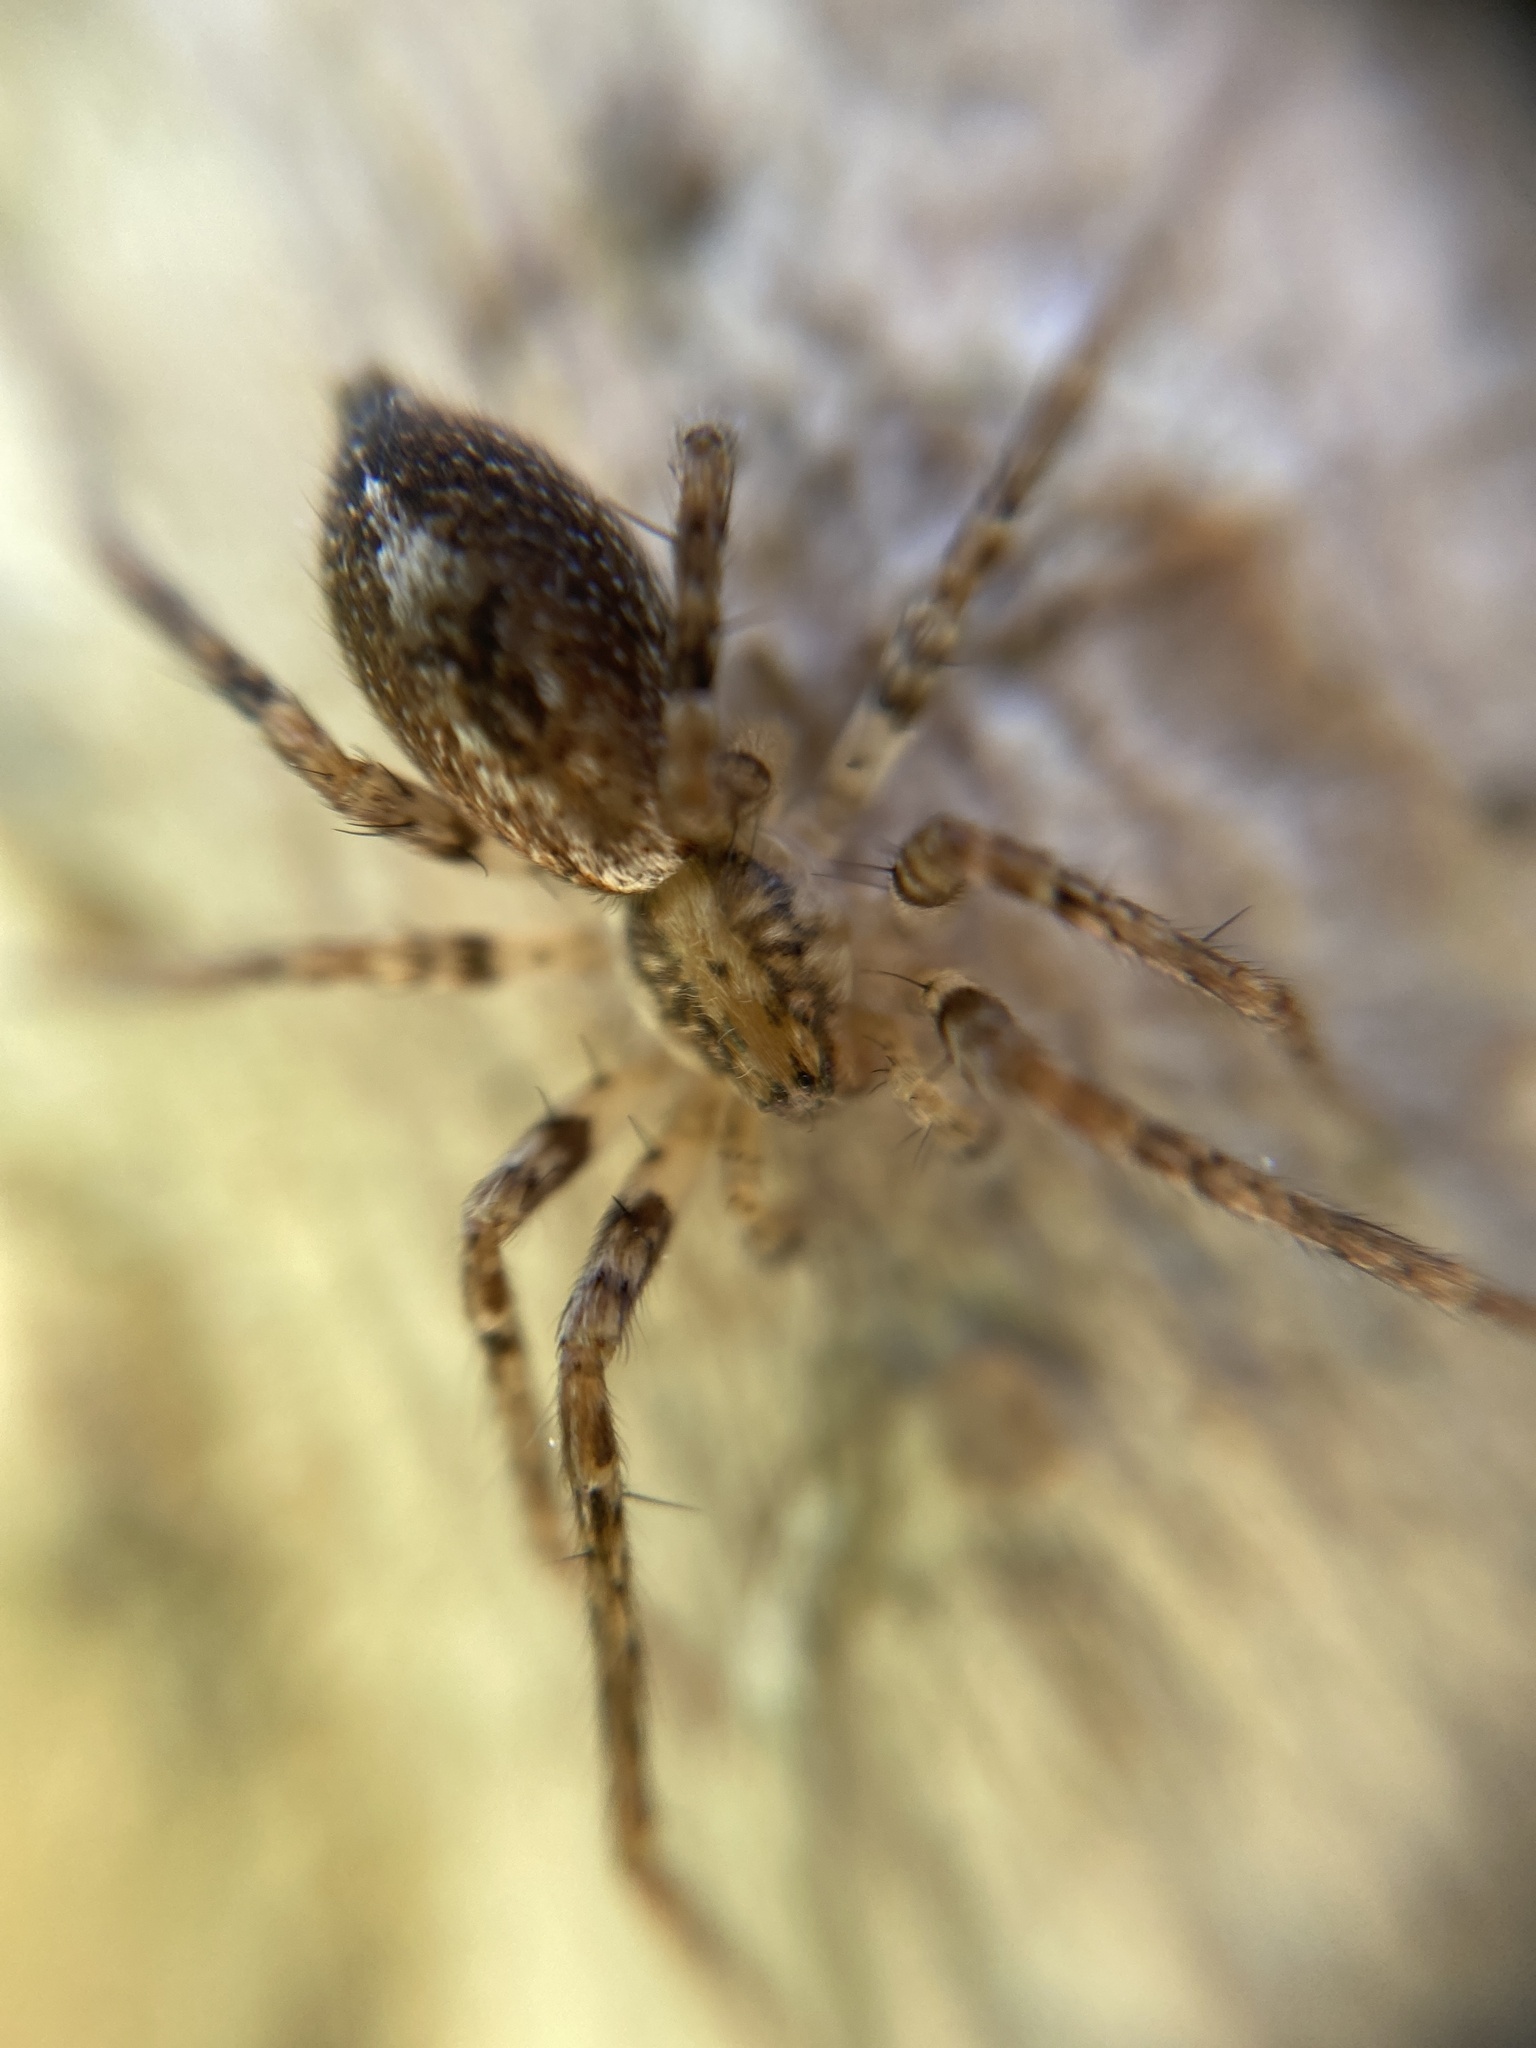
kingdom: Animalia
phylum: Arthropoda
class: Arachnida
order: Araneae
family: Anyphaenidae
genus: Anyphaena
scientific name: Anyphaena accentuata
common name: Buzzing spider
